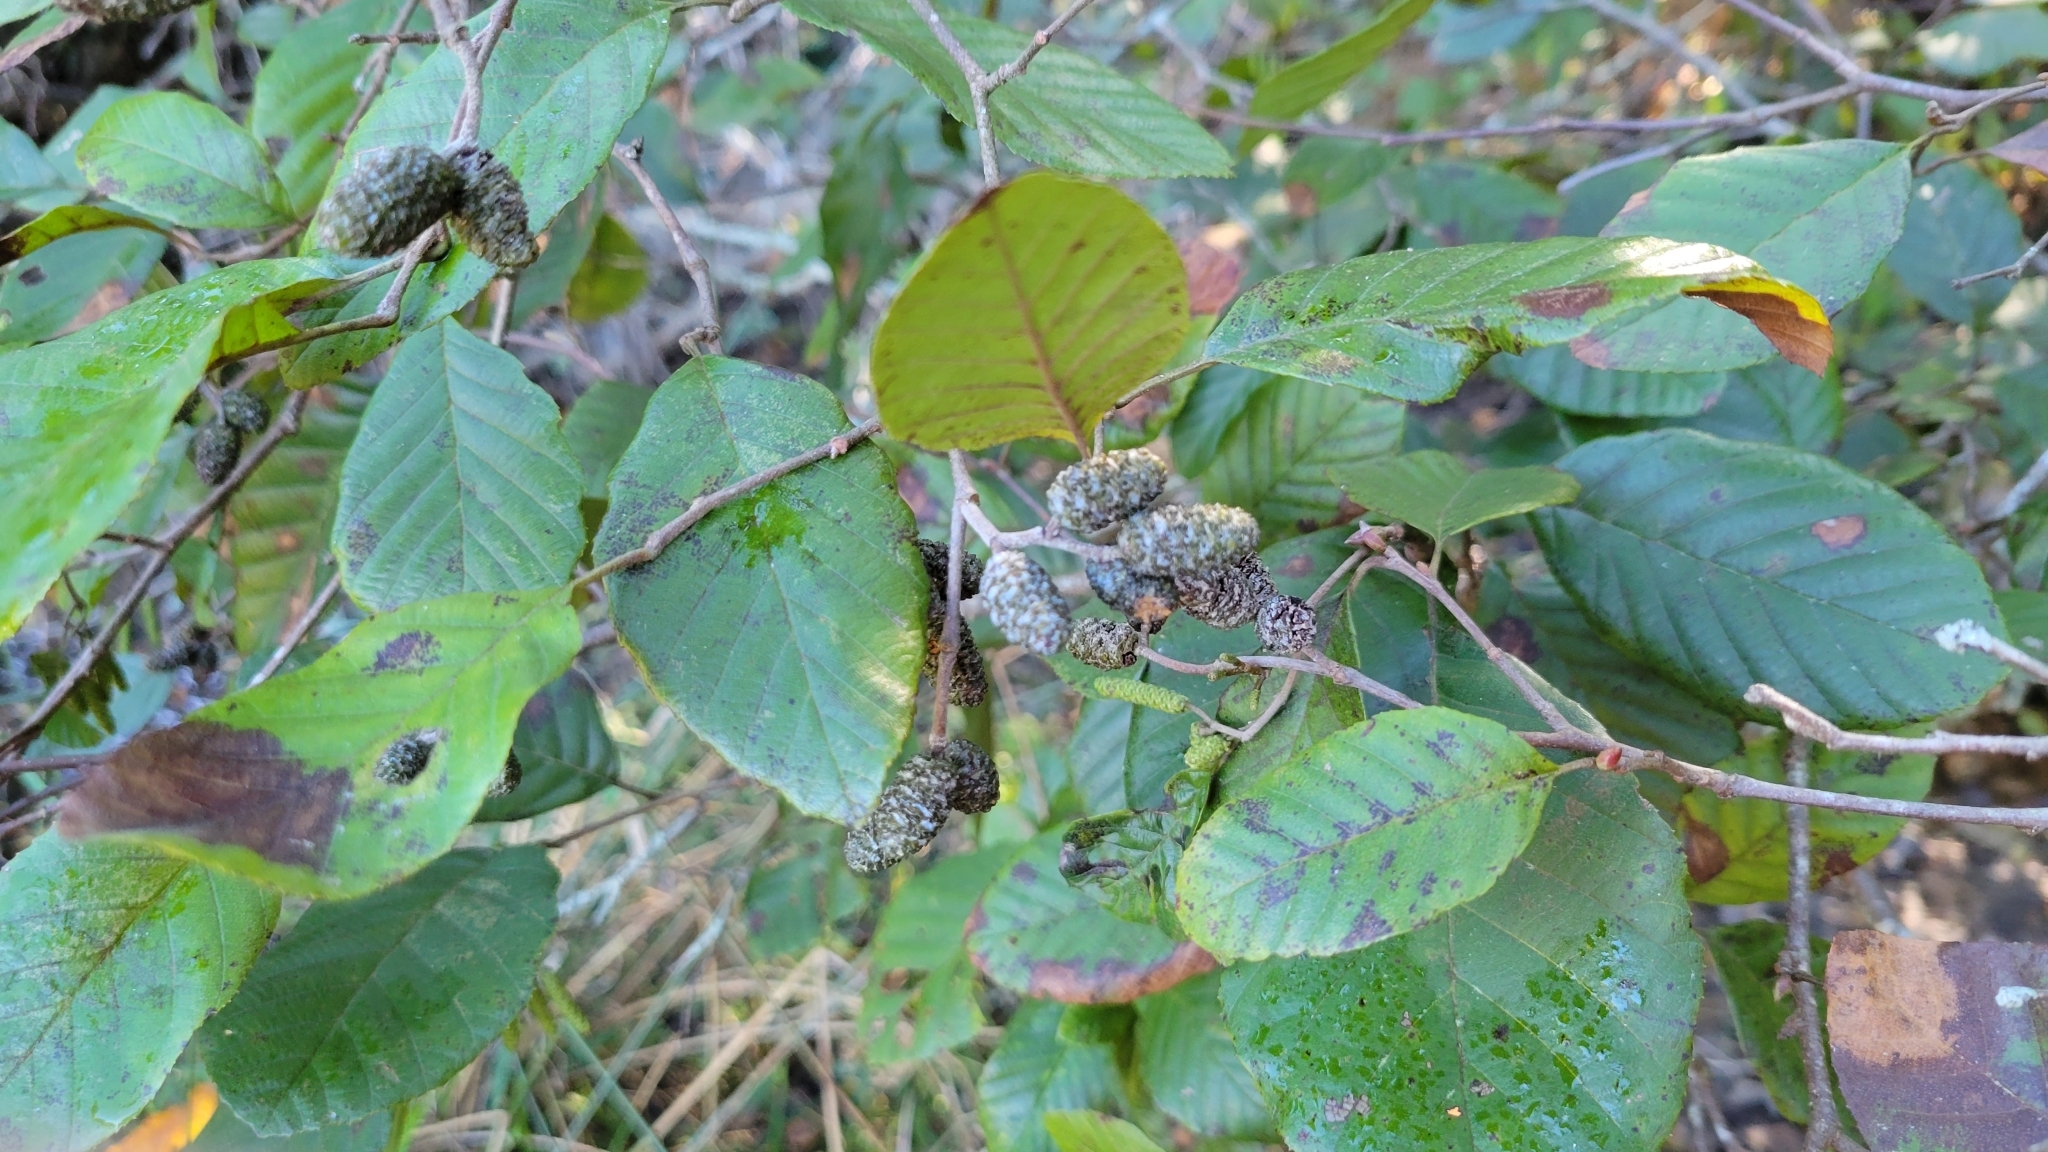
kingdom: Plantae
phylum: Tracheophyta
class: Magnoliopsida
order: Fagales
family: Betulaceae
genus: Alnus
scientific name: Alnus serrulata
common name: Hazel alder
